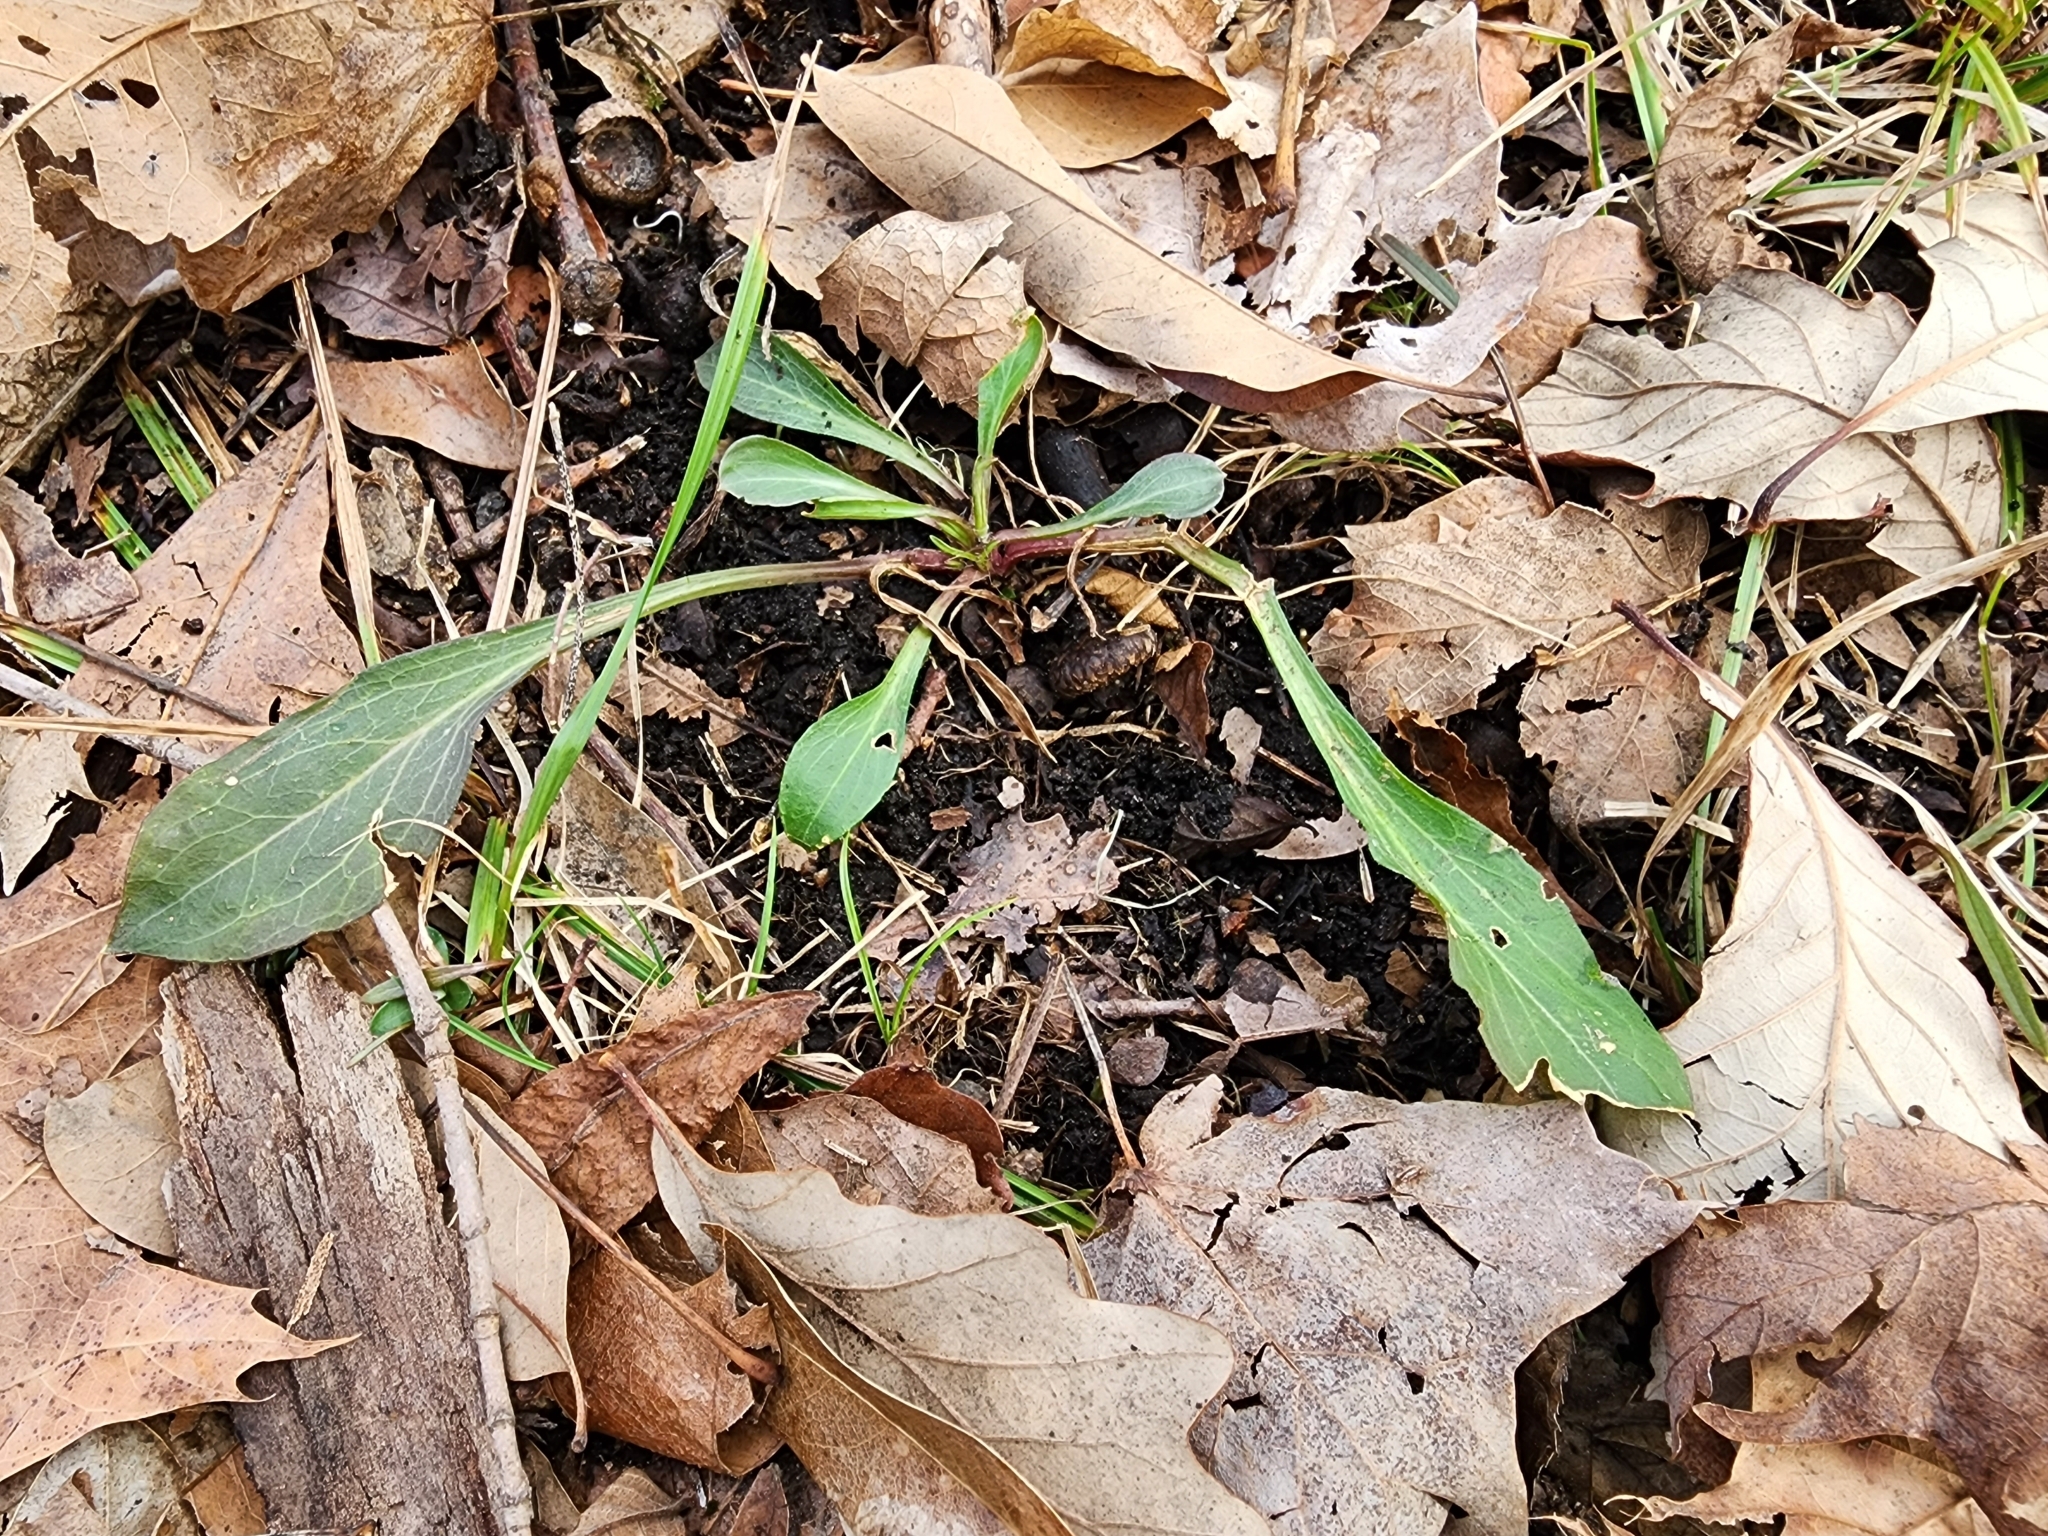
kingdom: Plantae
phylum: Tracheophyta
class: Magnoliopsida
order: Caryophyllales
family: Caryophyllaceae
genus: Silene
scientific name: Silene virginica
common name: Fire-pink
